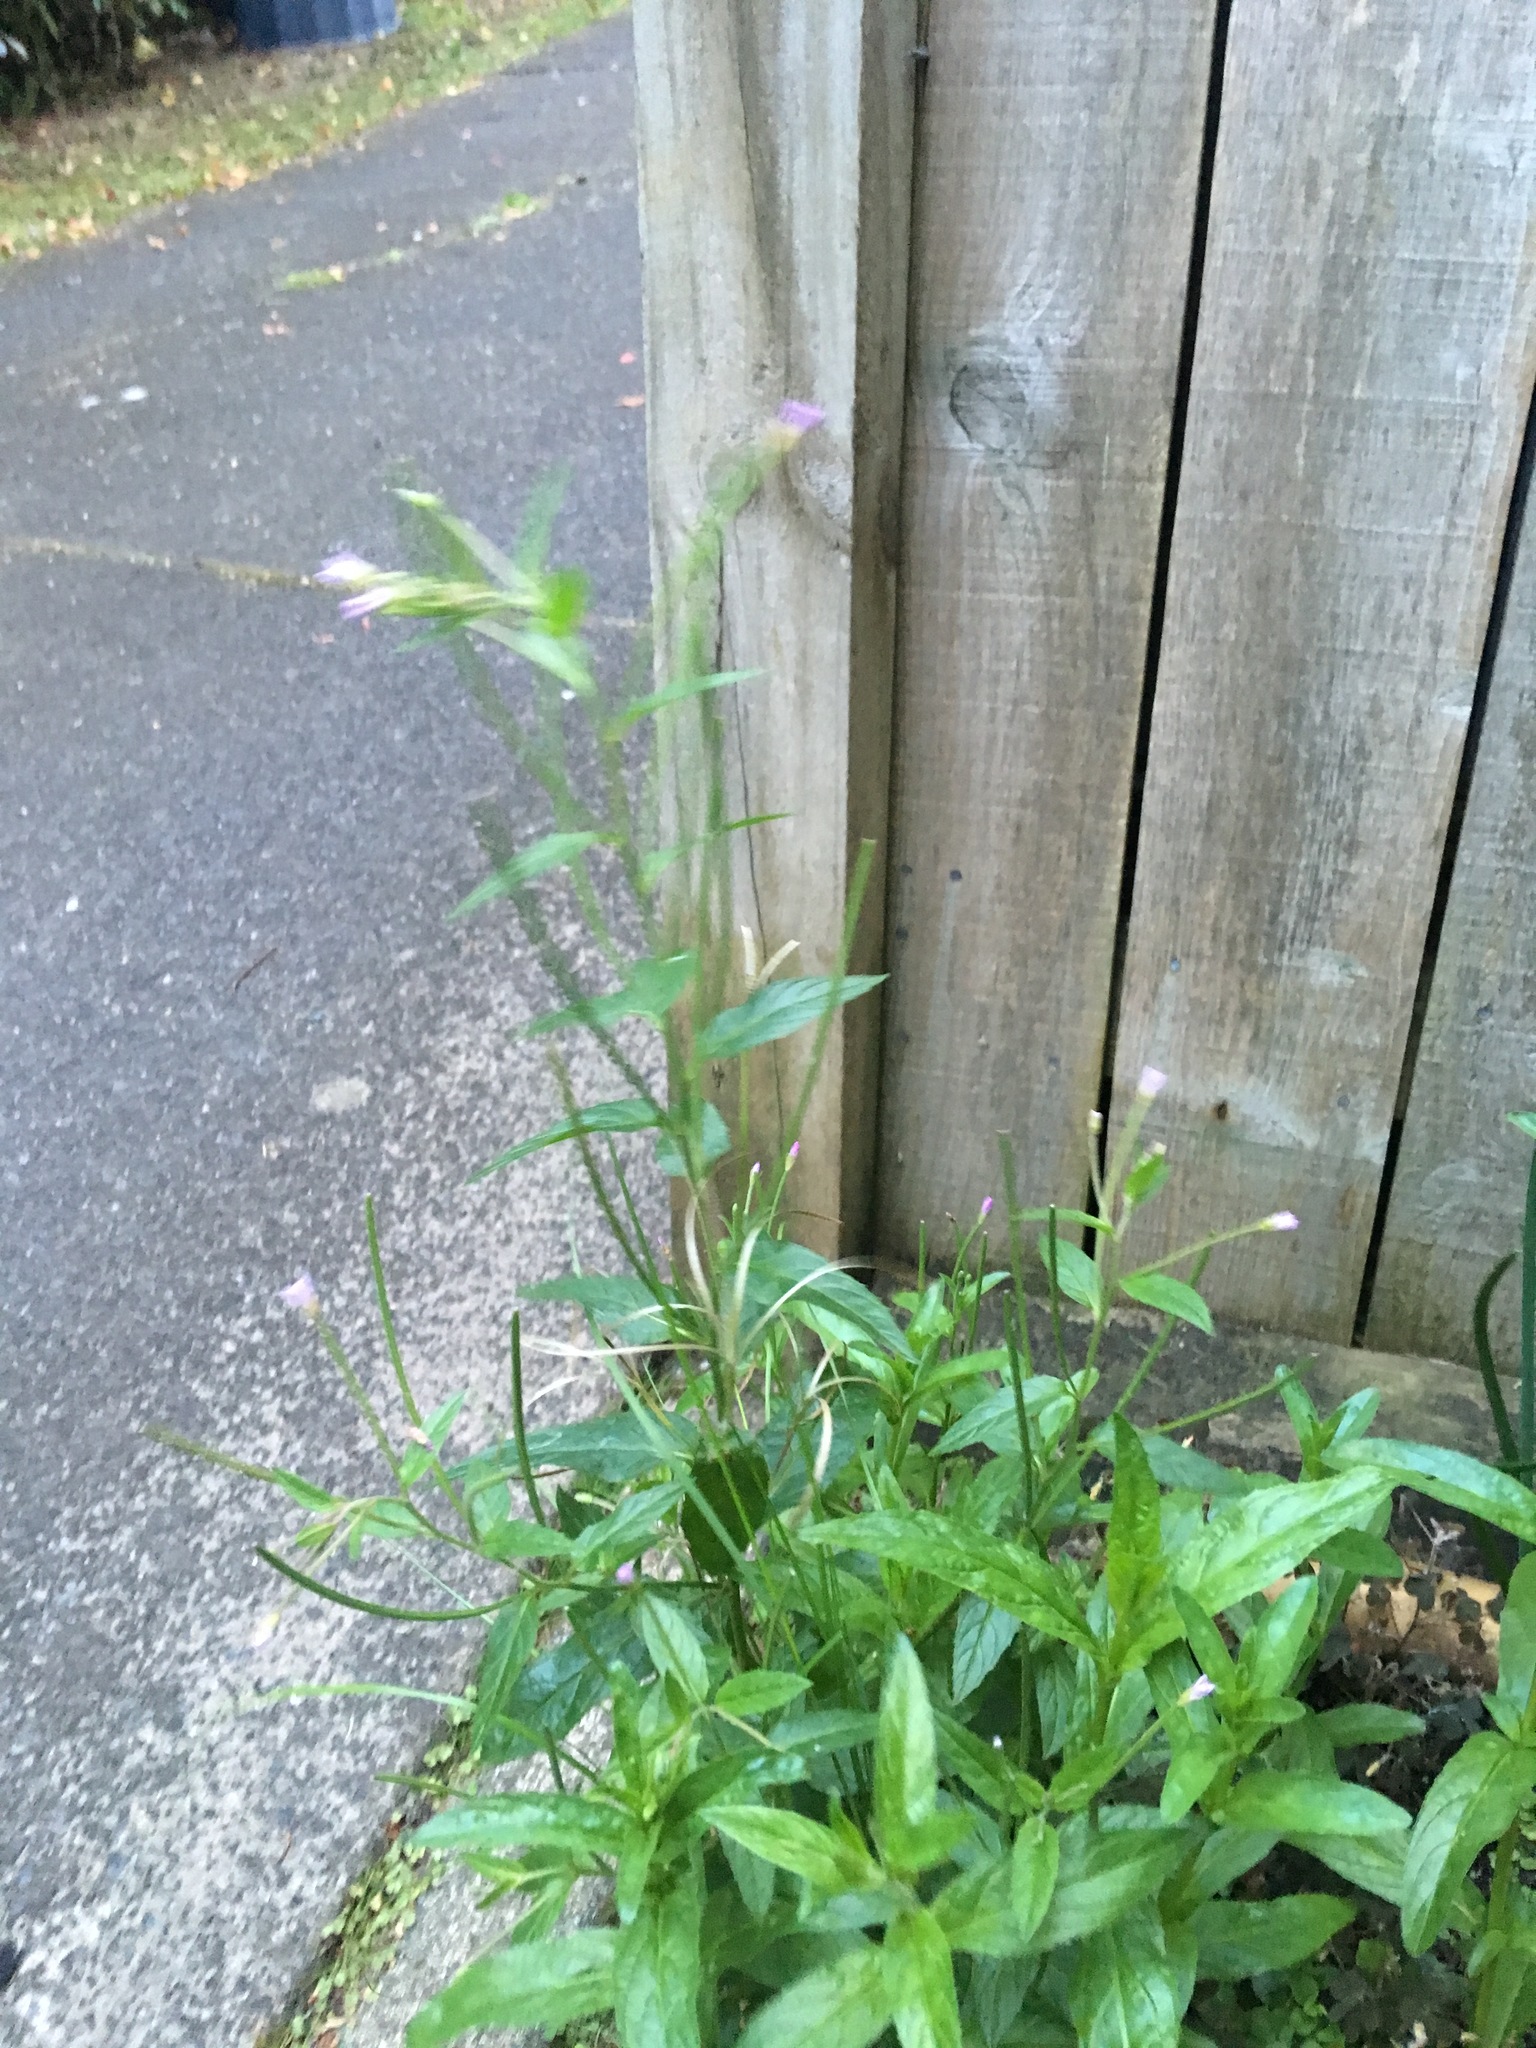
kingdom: Plantae
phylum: Tracheophyta
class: Magnoliopsida
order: Myrtales
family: Onagraceae
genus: Epilobium
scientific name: Epilobium ciliatum
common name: American willowherb
